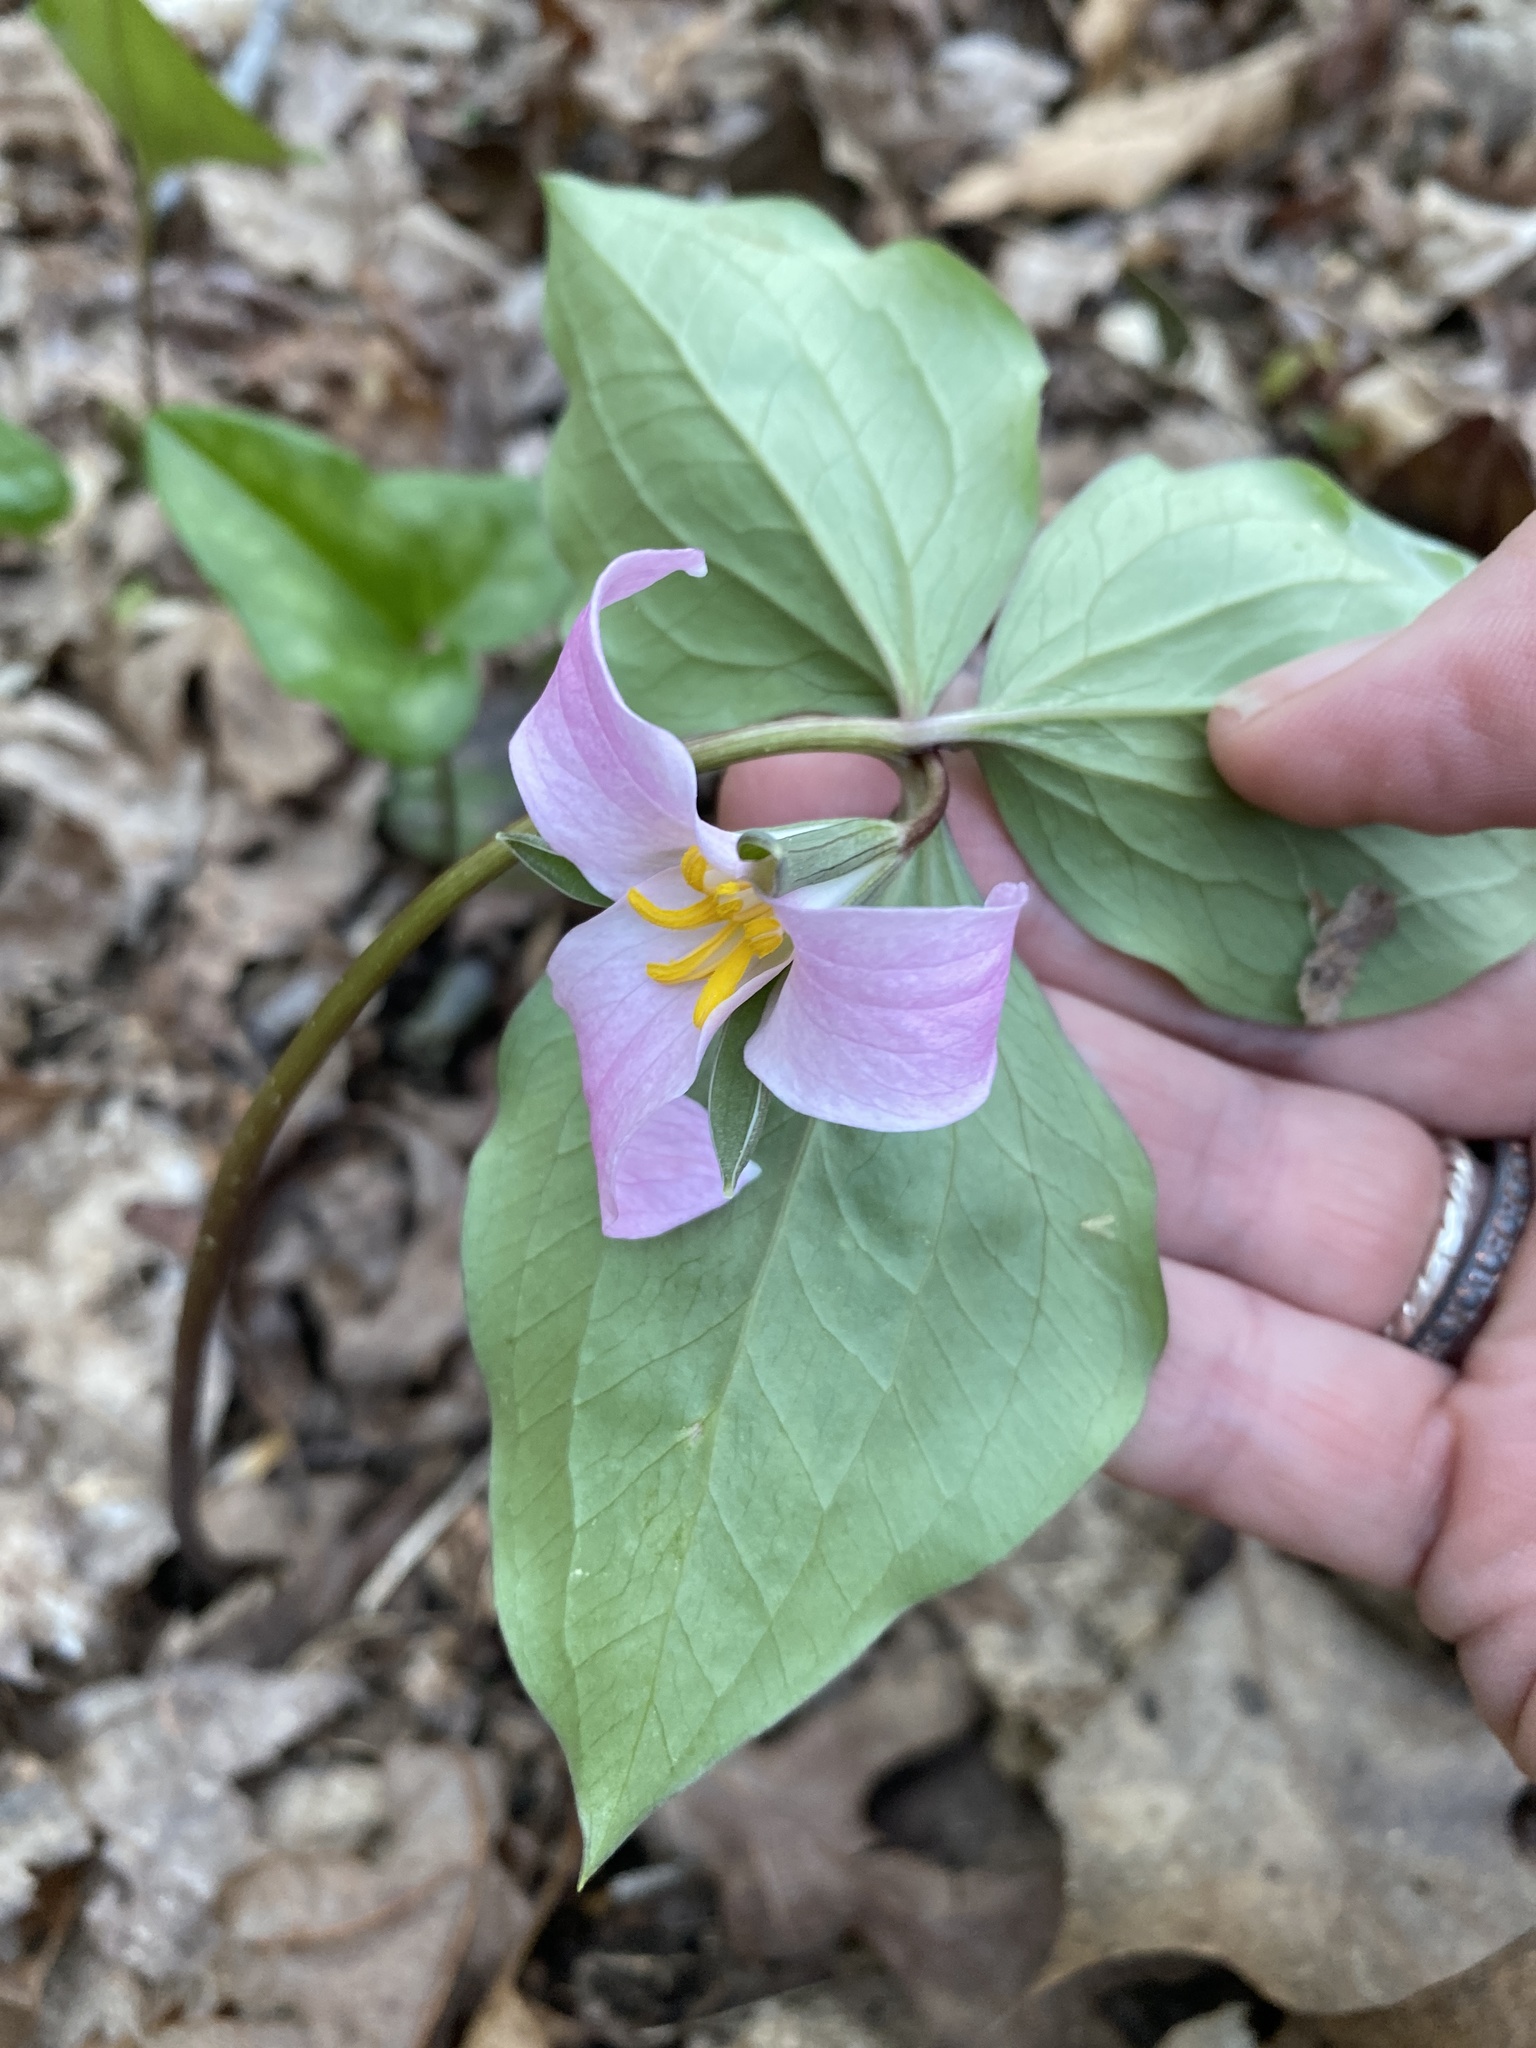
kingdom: Plantae
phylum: Tracheophyta
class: Liliopsida
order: Liliales
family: Melanthiaceae
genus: Trillium
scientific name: Trillium catesbaei
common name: Bashful trillium
